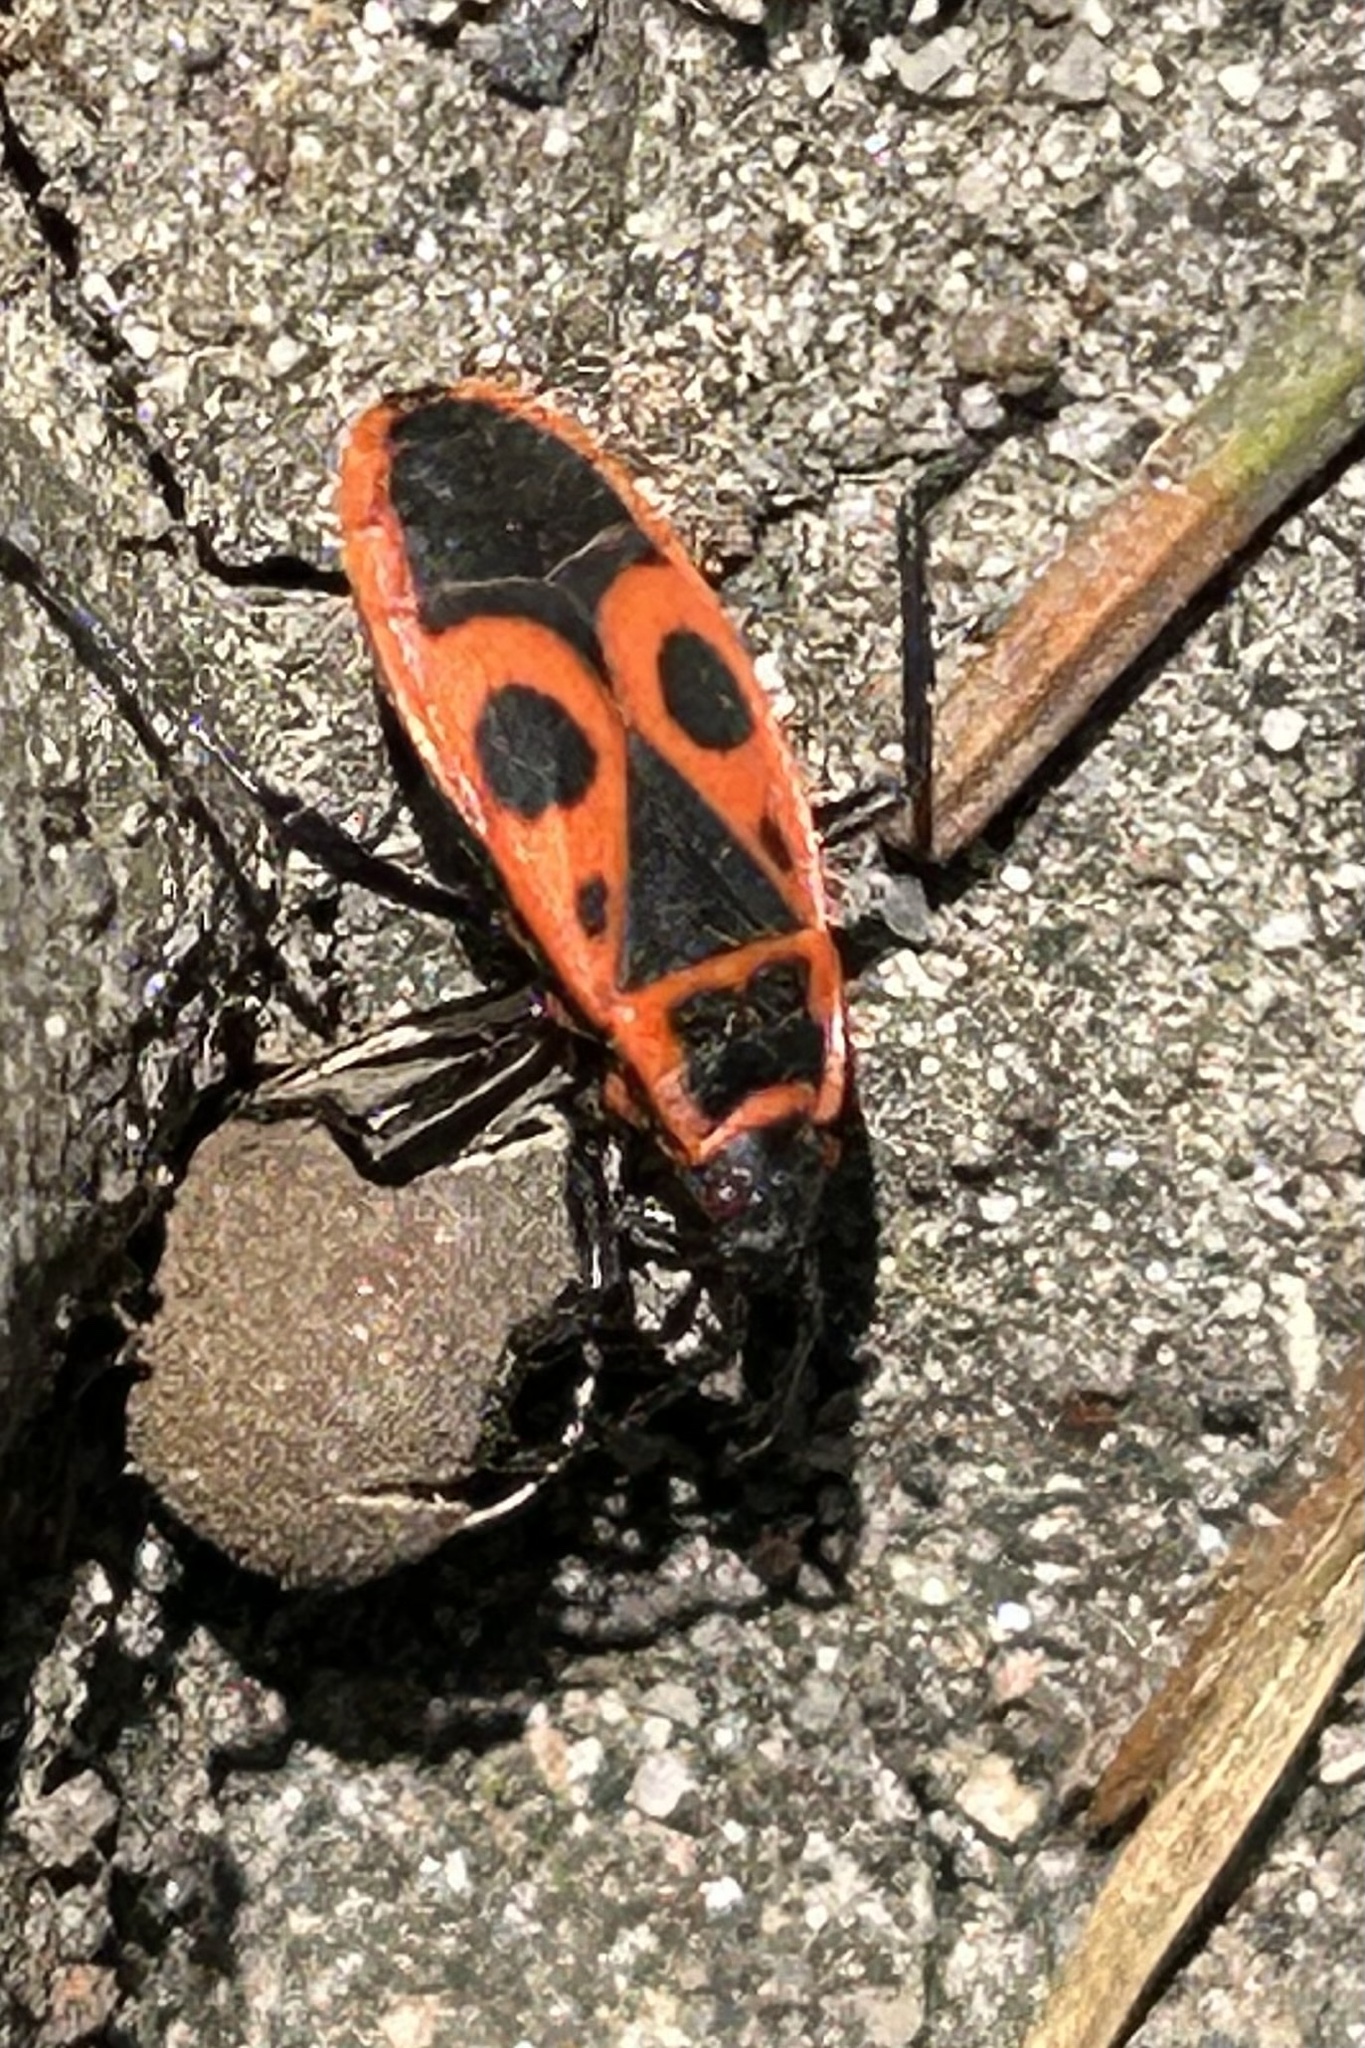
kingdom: Animalia
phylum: Arthropoda
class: Insecta
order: Hemiptera
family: Pyrrhocoridae
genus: Pyrrhocoris
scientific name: Pyrrhocoris apterus
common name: Firebug
